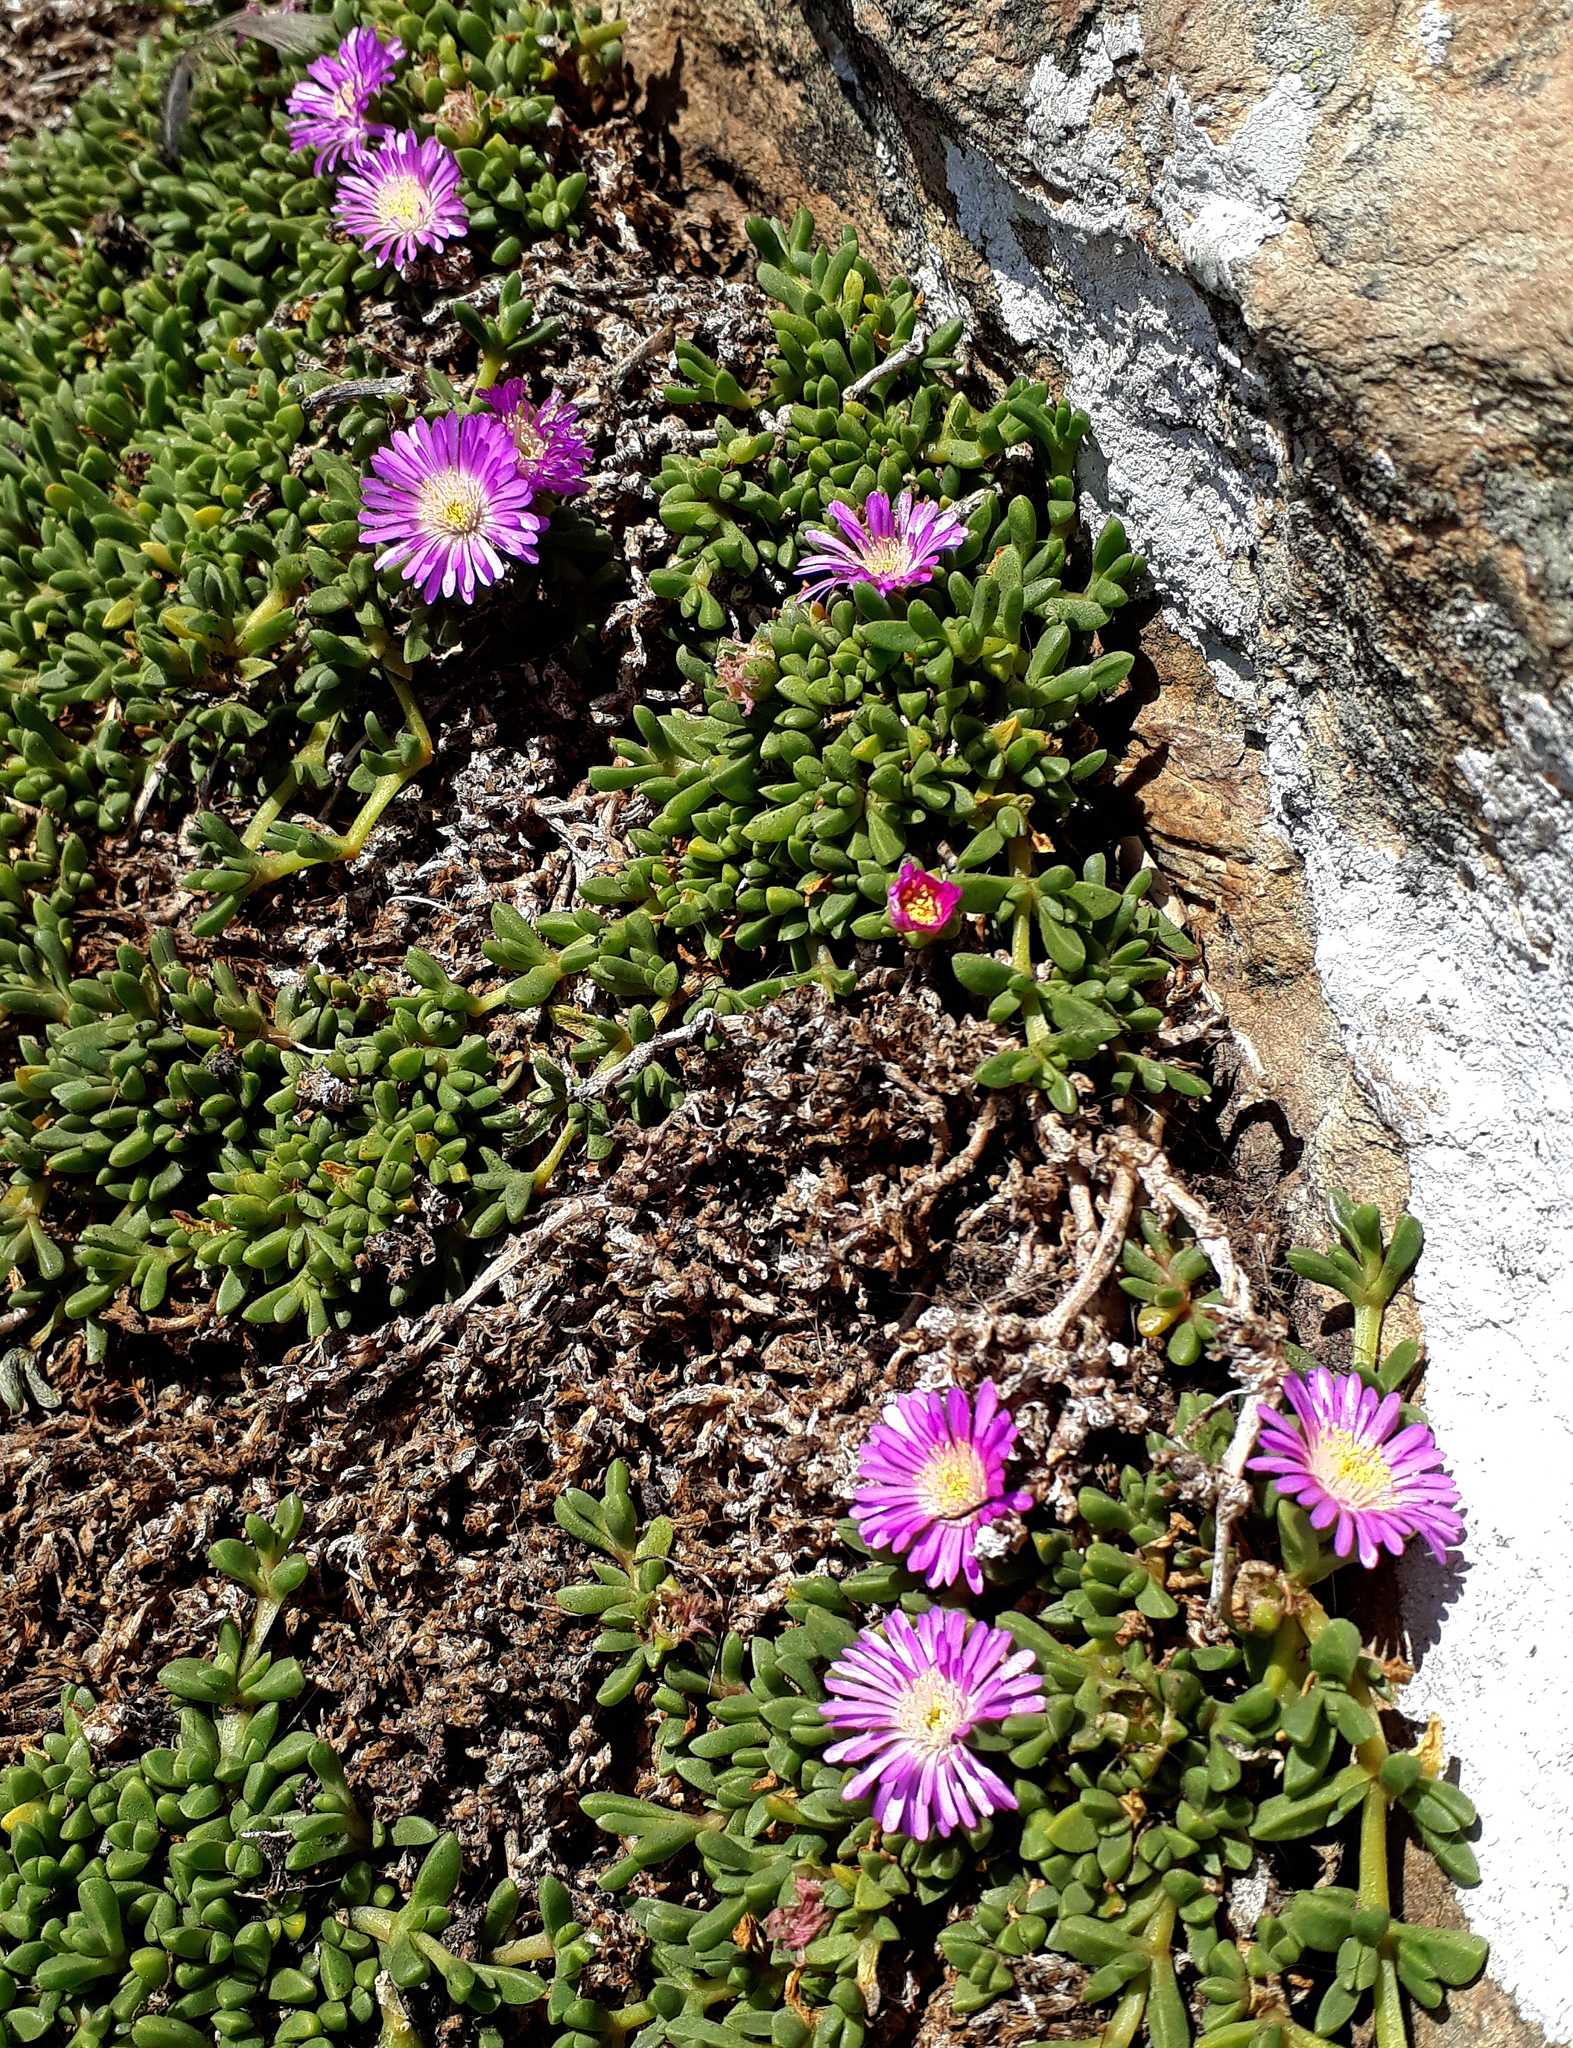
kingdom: Plantae
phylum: Tracheophyta
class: Magnoliopsida
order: Caryophyllales
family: Aizoaceae
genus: Disphyma
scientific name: Disphyma papillatum
